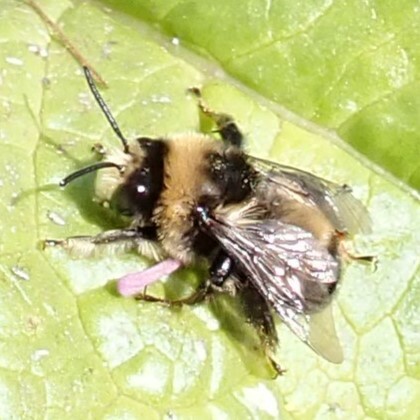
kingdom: Animalia
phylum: Arthropoda
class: Insecta
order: Hymenoptera
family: Apidae
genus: Anthophora
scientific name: Anthophora bomboides
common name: Bumble-bee-mimic digger bee
